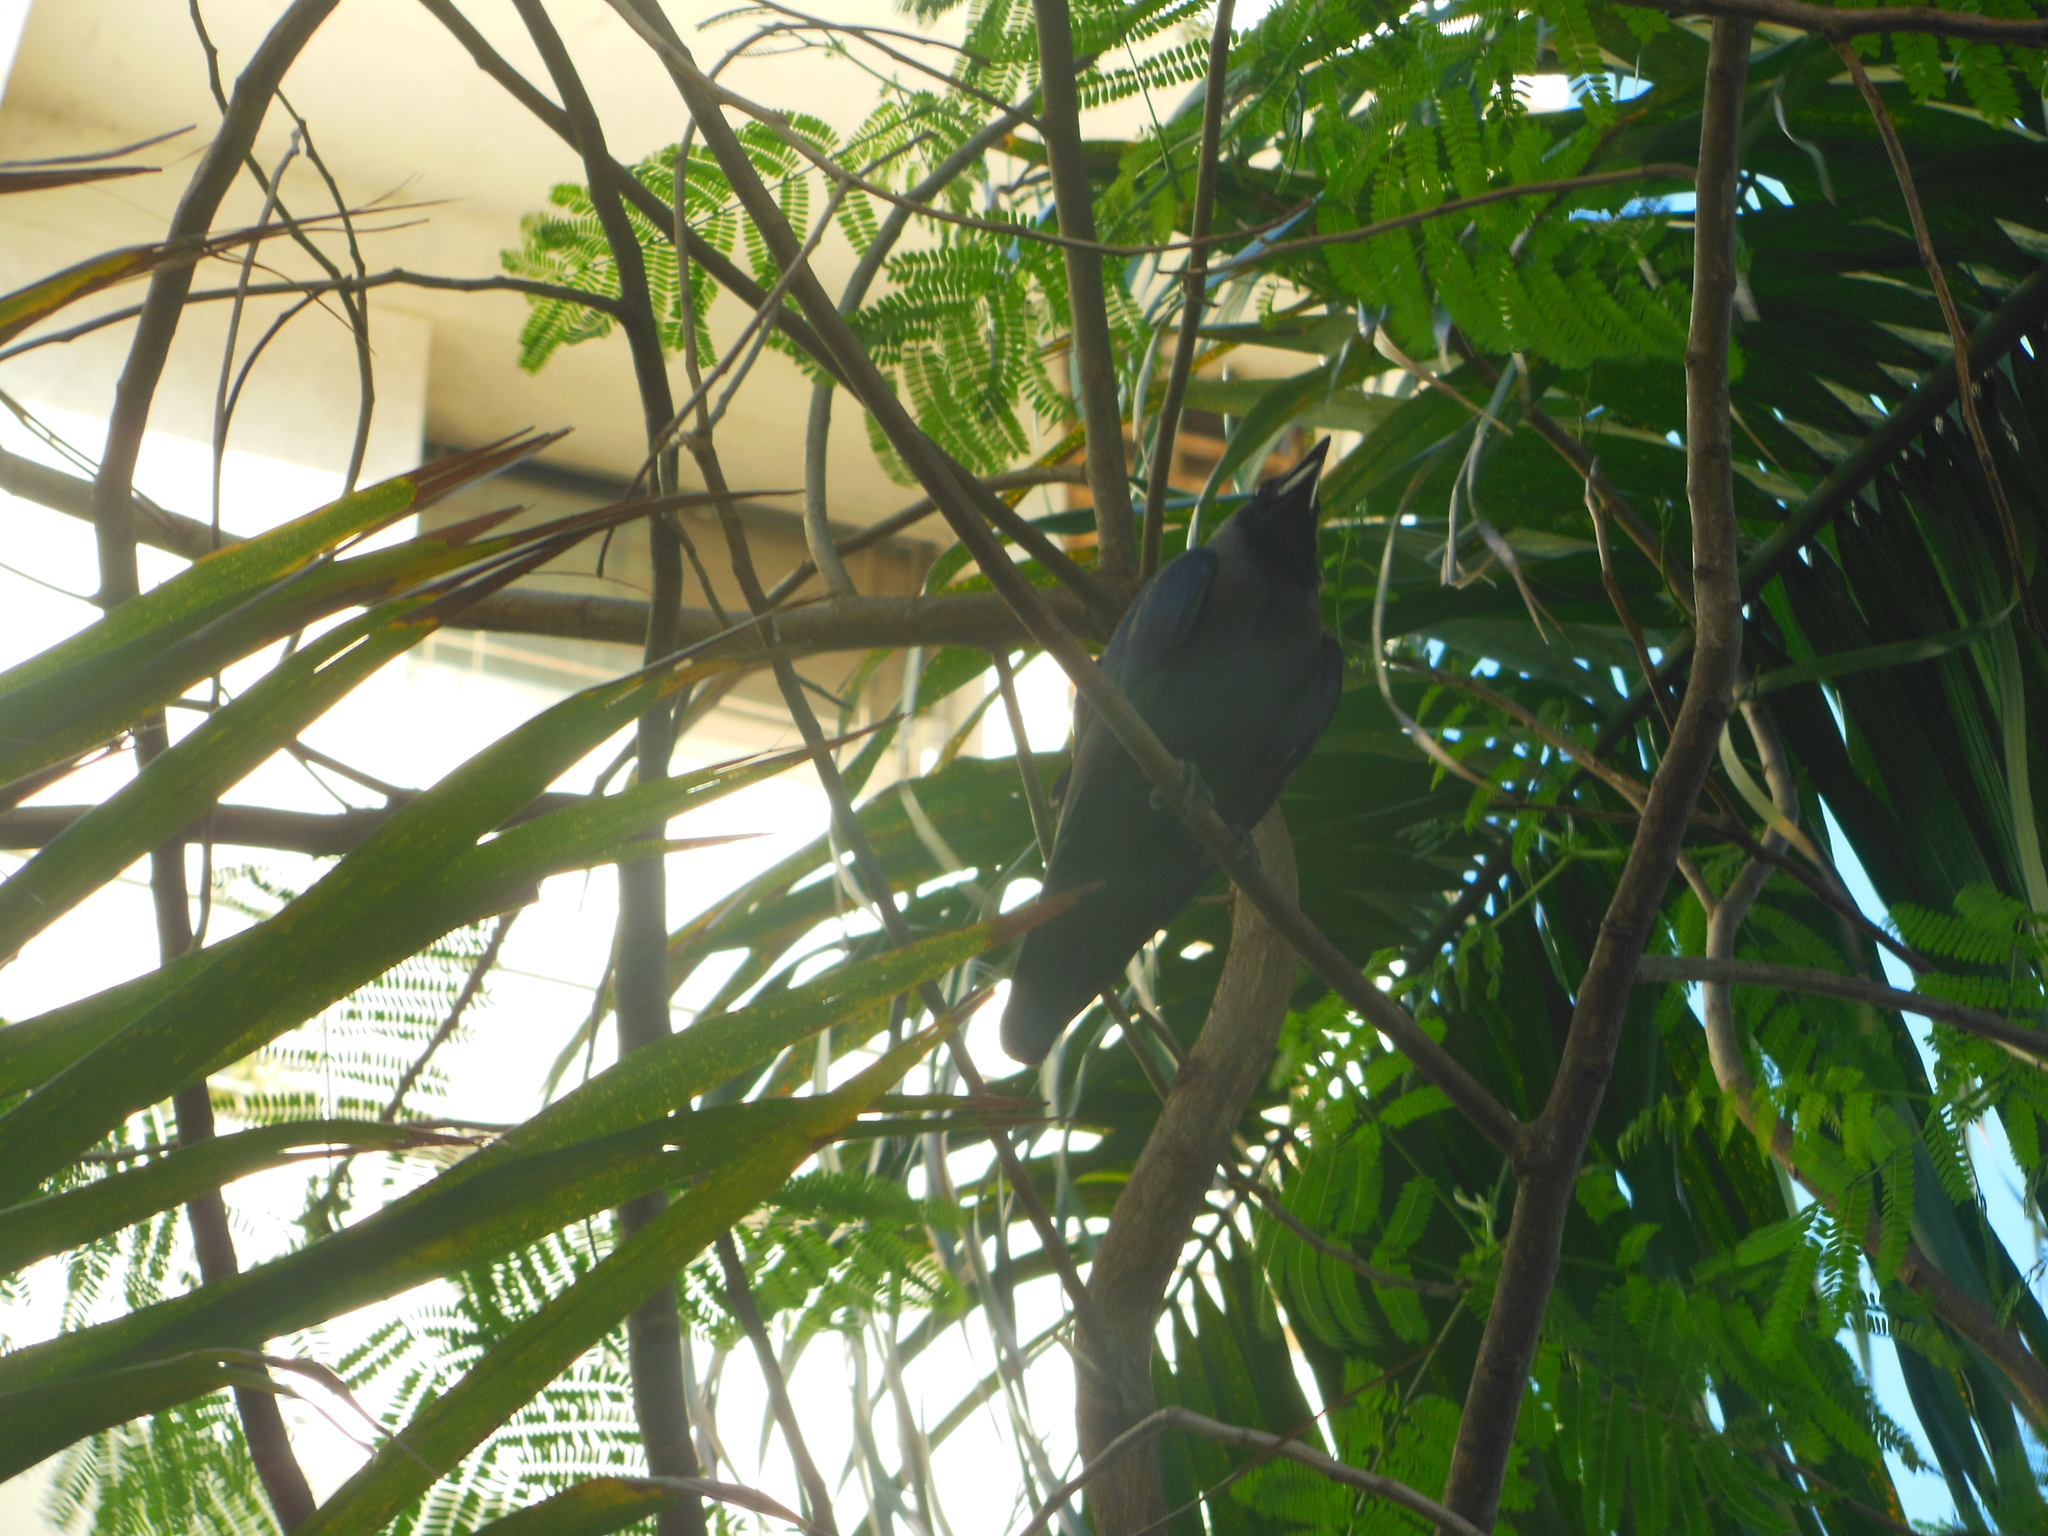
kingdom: Animalia
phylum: Chordata
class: Aves
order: Passeriformes
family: Corvidae
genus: Corvus
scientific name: Corvus splendens
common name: House crow
